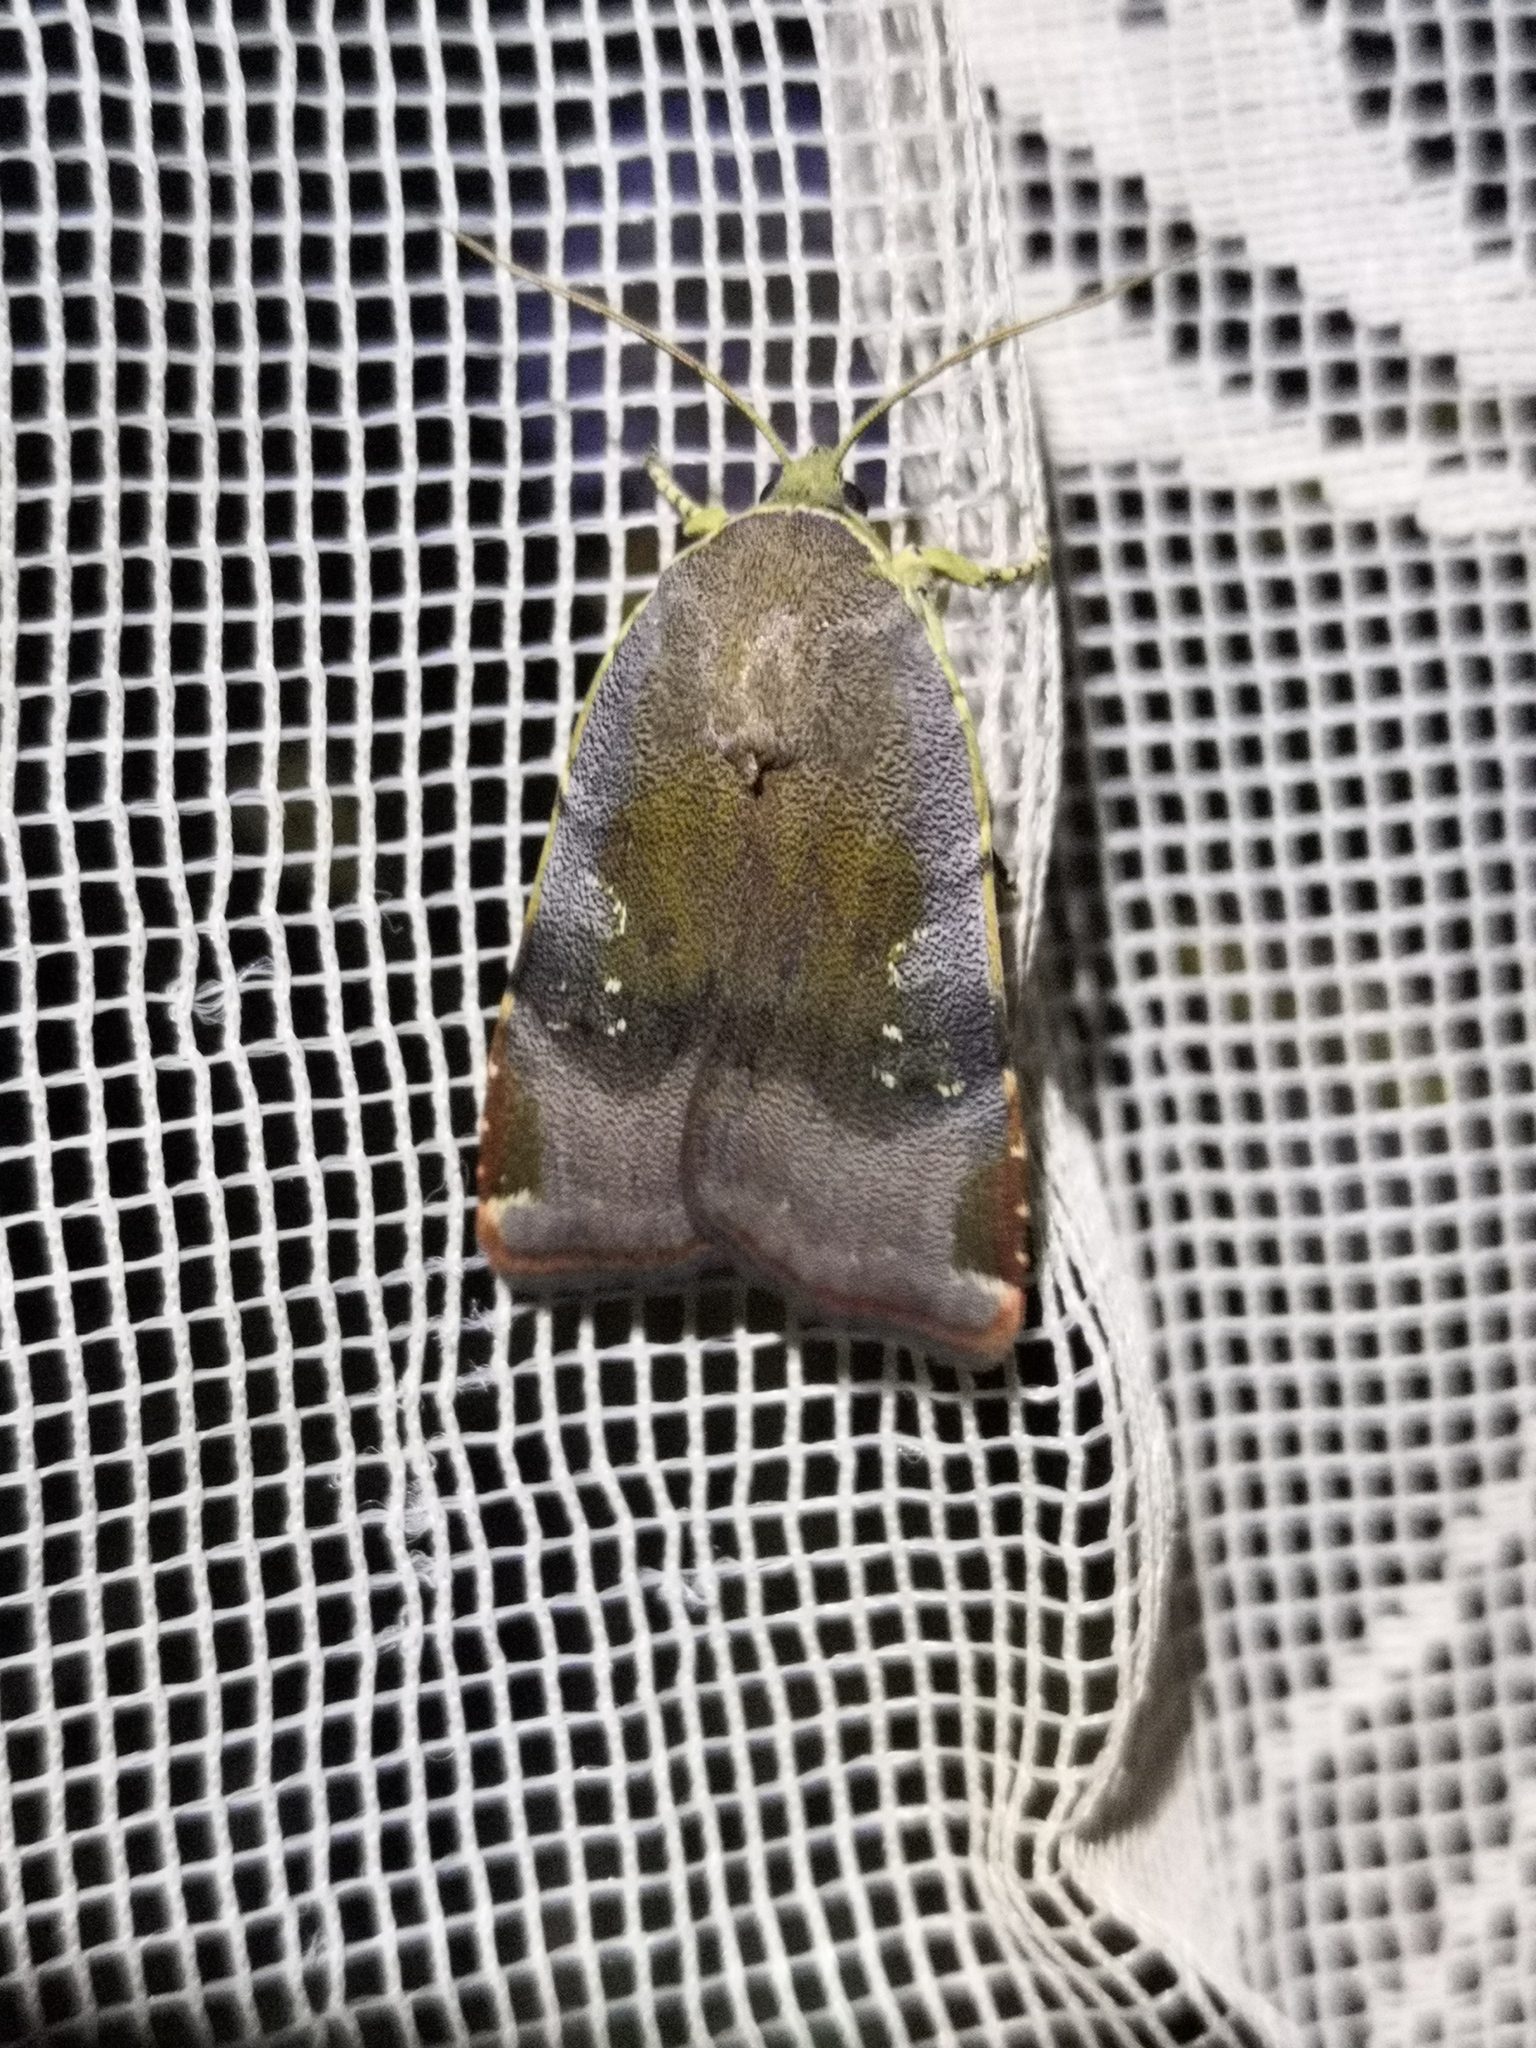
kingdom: Animalia
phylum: Arthropoda
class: Insecta
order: Lepidoptera
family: Noctuidae
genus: Noctua
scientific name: Noctua janthina
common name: Langmaid's yellow underwing
